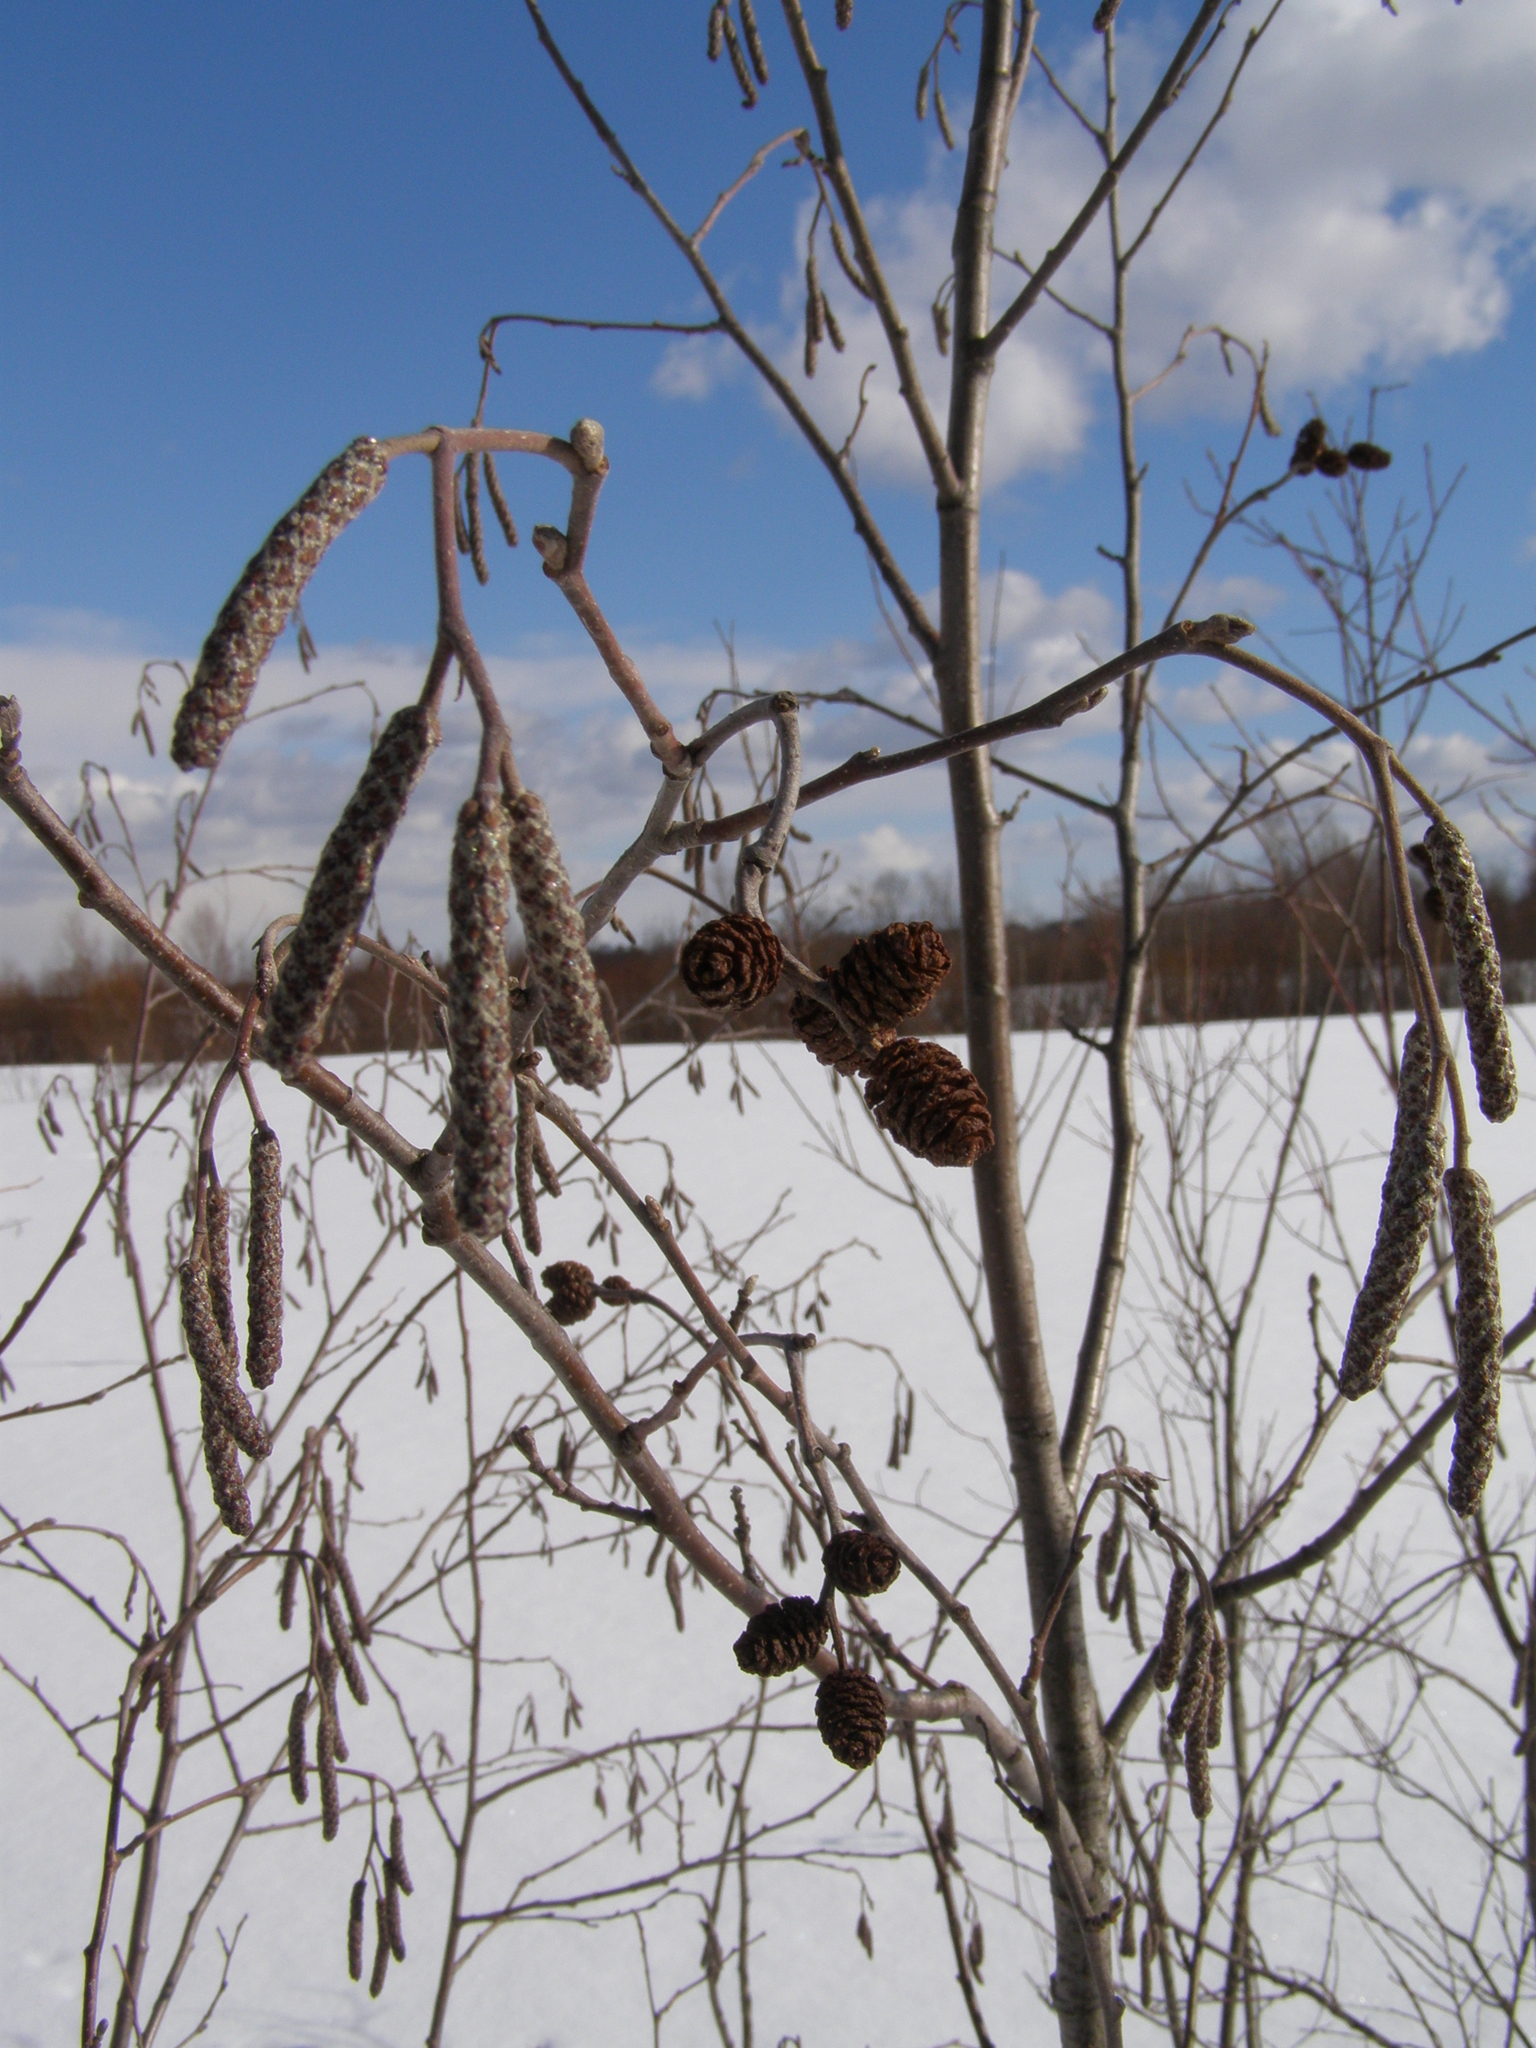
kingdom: Plantae
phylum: Tracheophyta
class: Magnoliopsida
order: Fagales
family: Betulaceae
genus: Alnus
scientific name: Alnus incana
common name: Grey alder
